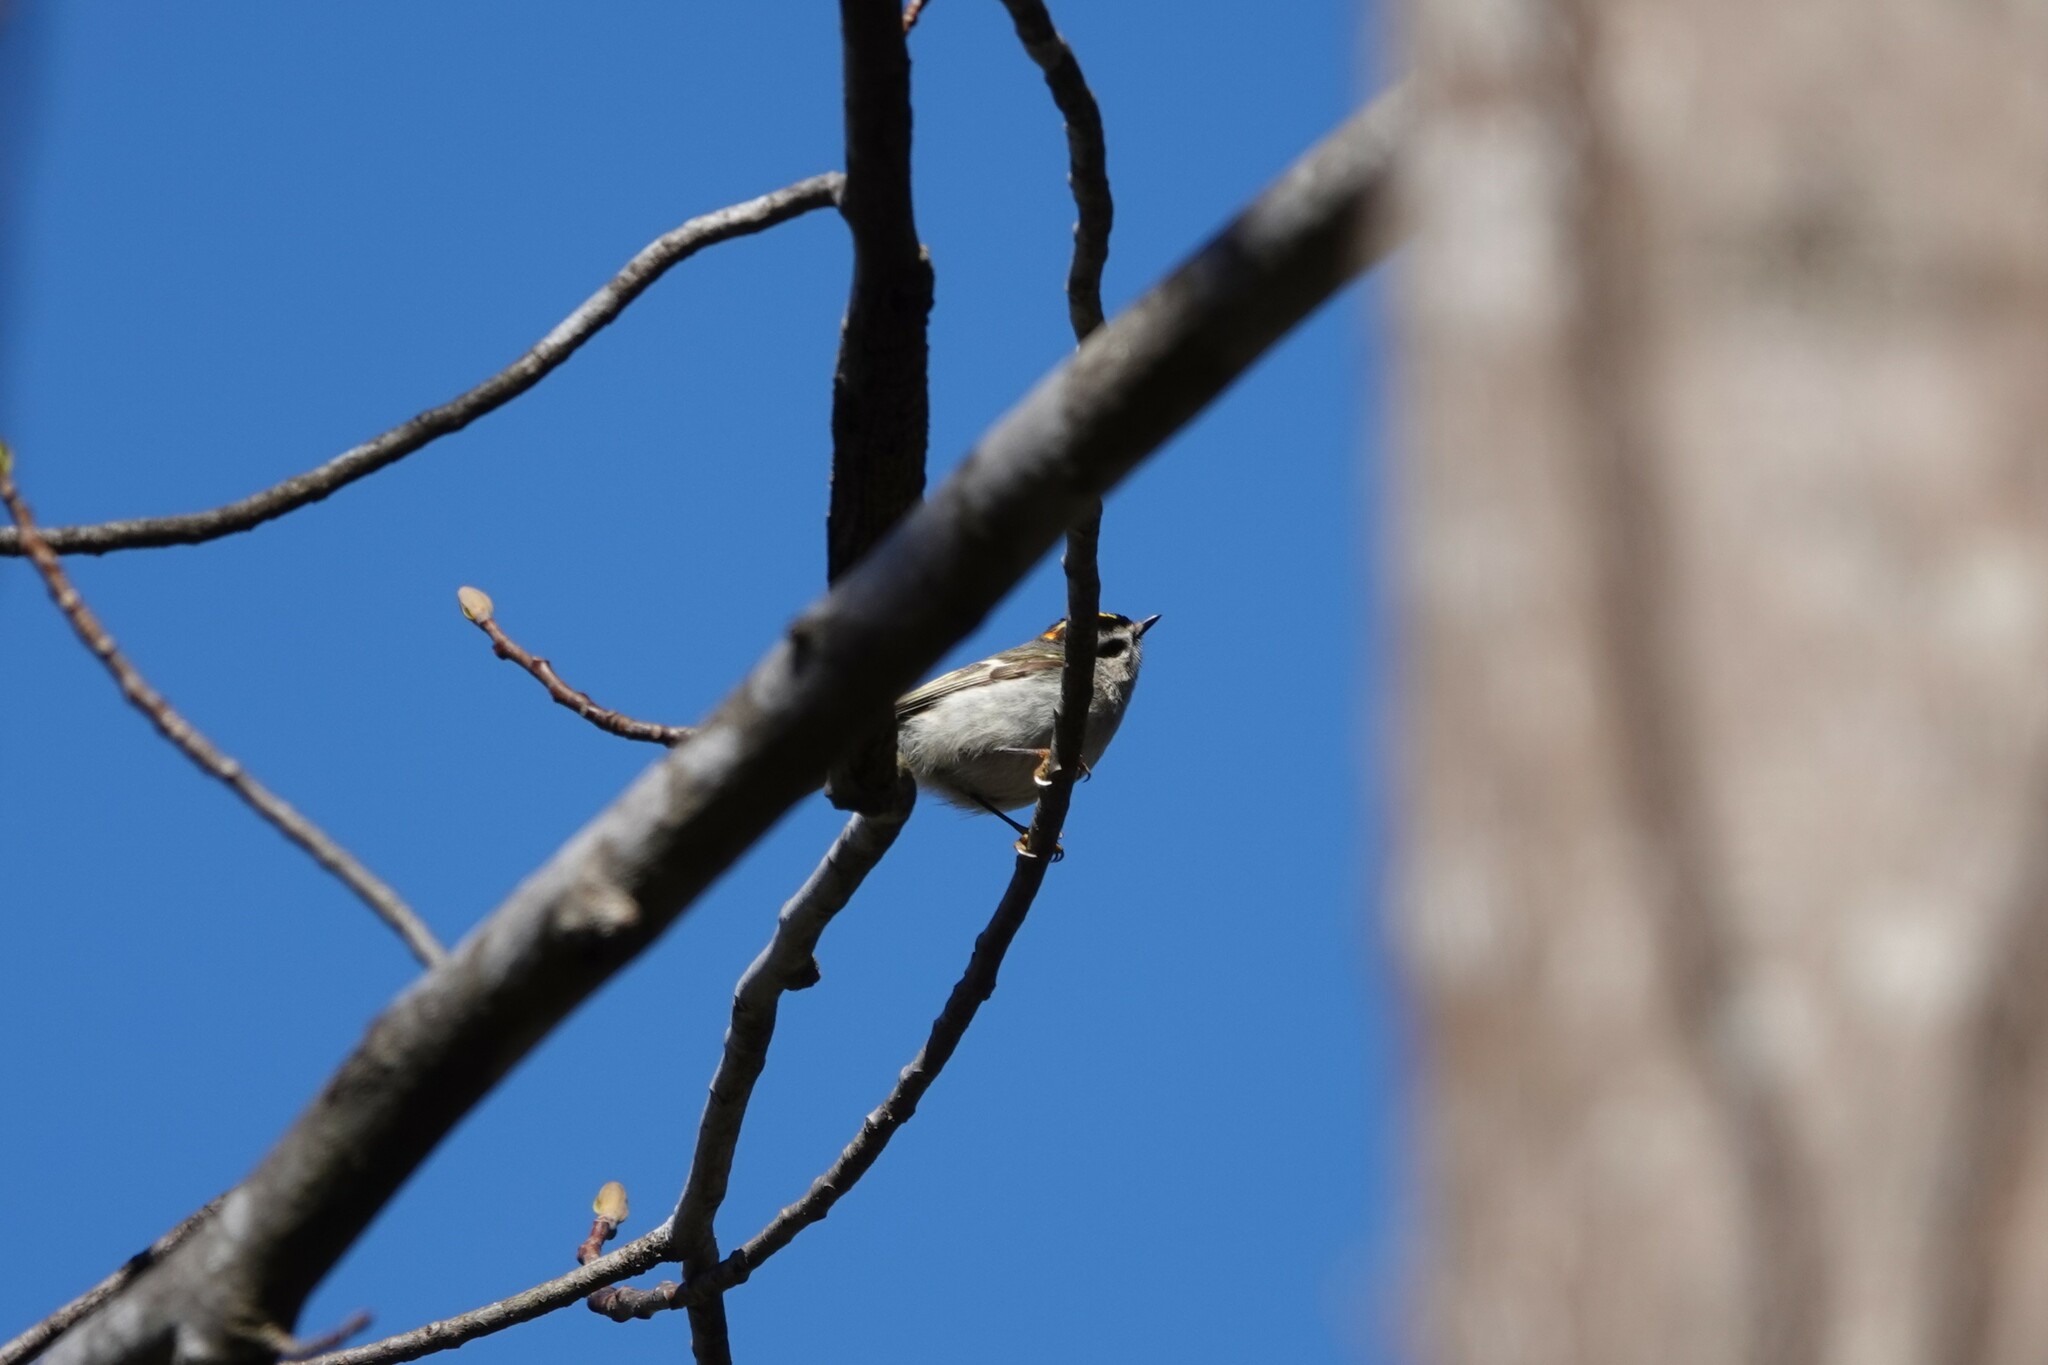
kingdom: Animalia
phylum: Chordata
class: Aves
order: Passeriformes
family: Regulidae
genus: Regulus
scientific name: Regulus satrapa
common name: Golden-crowned kinglet
